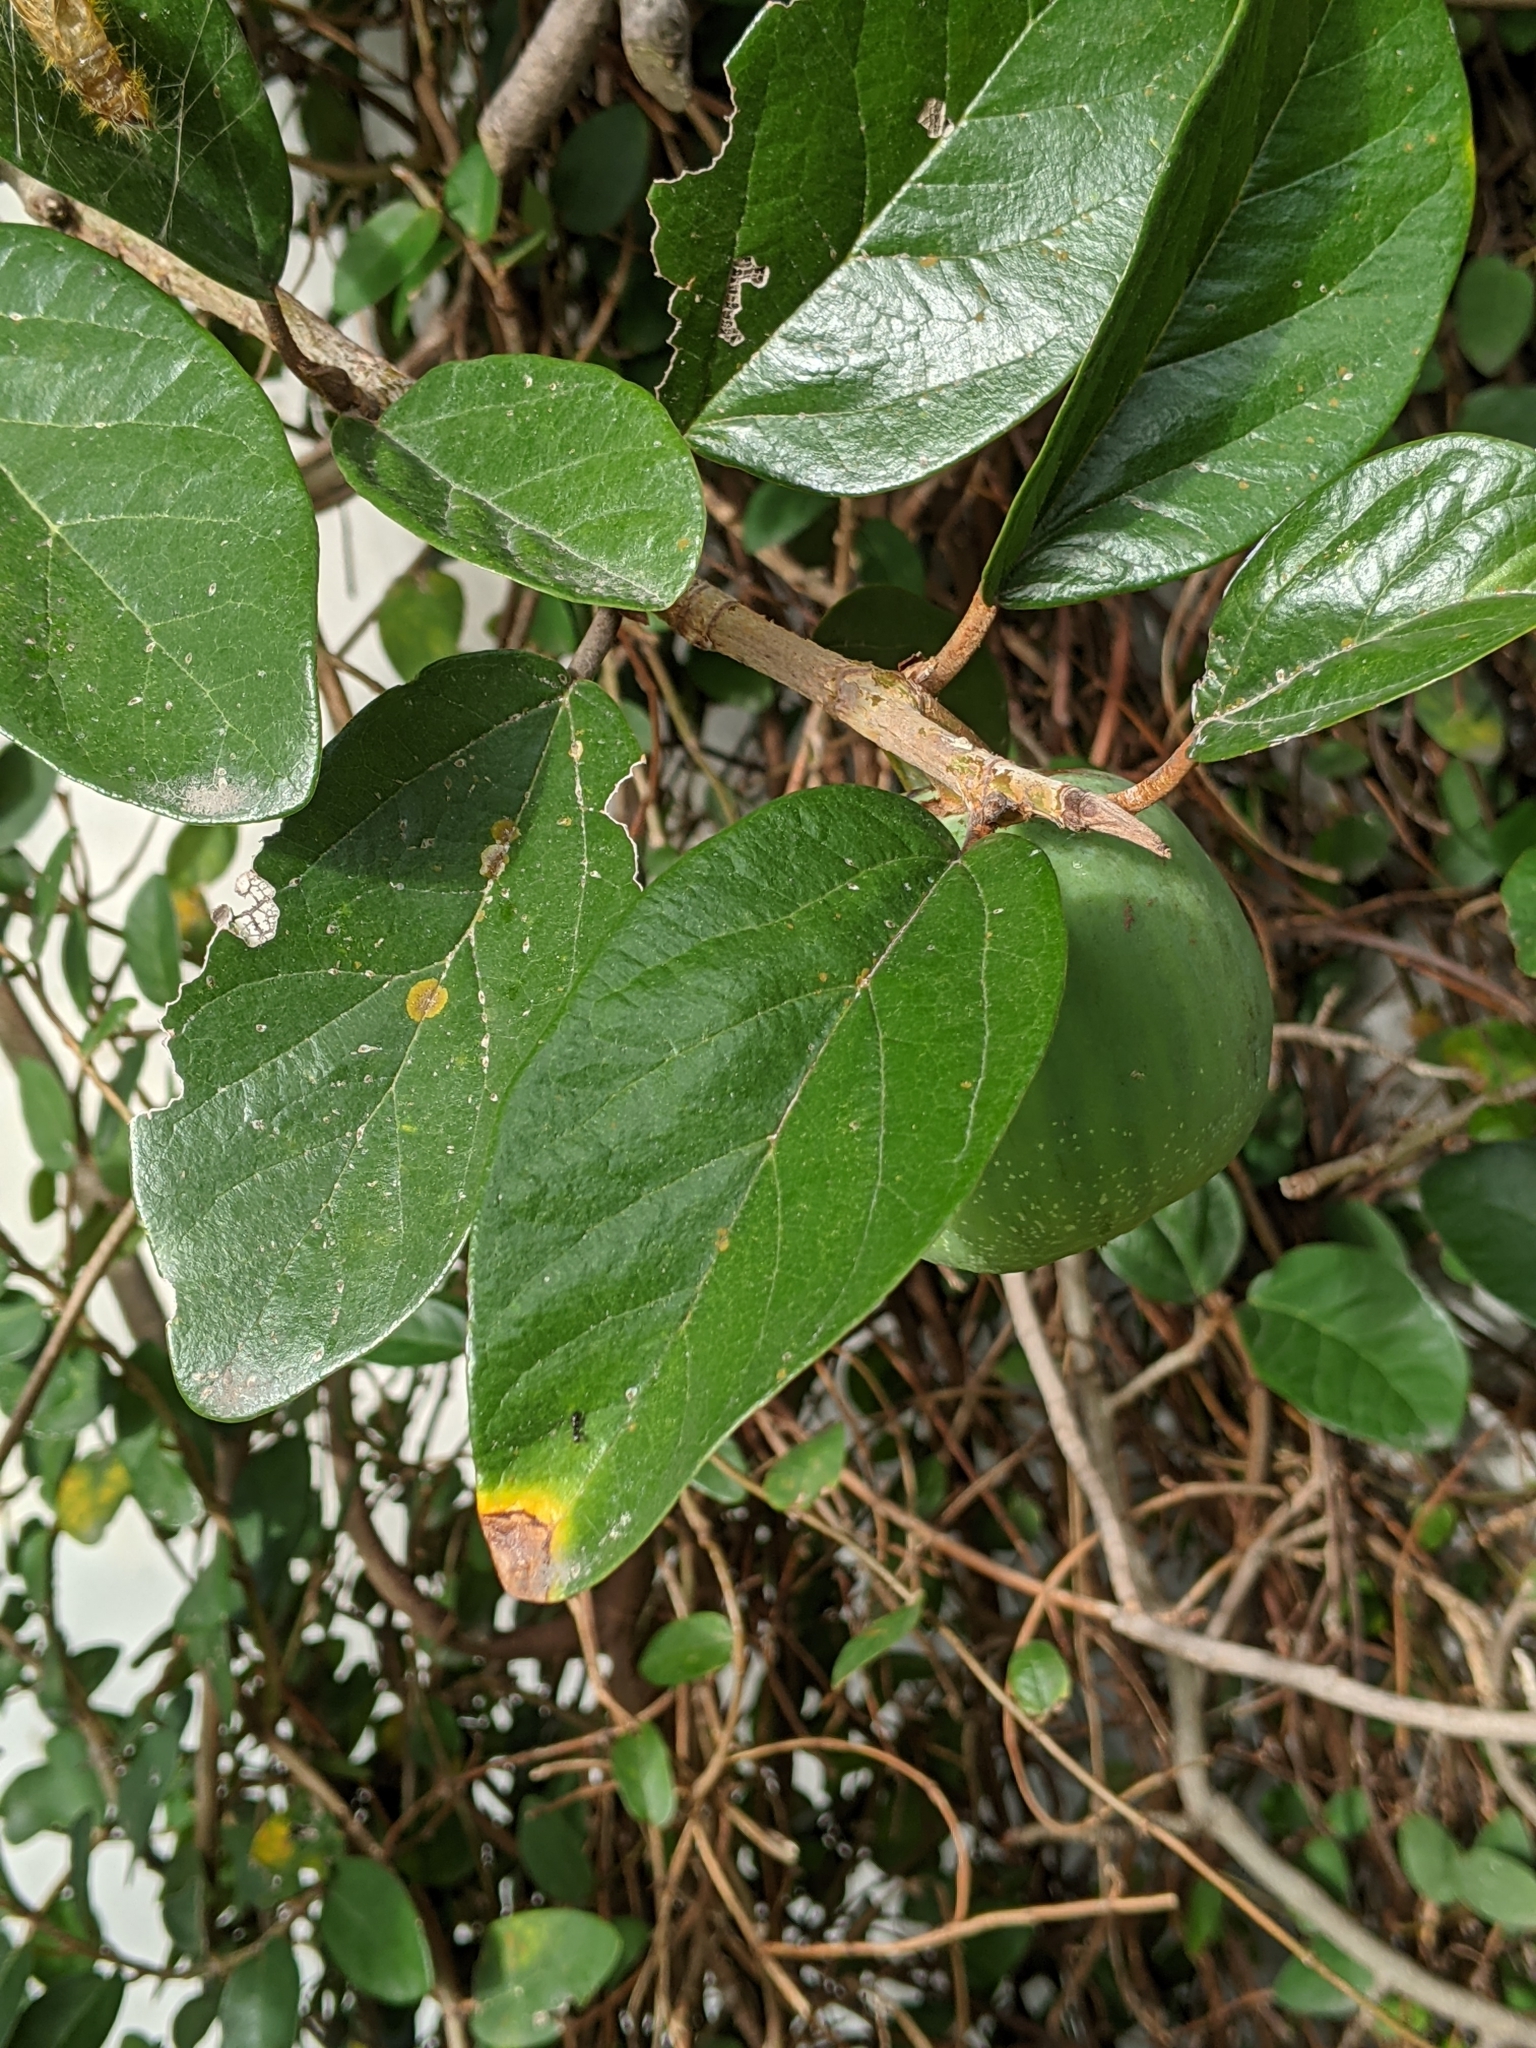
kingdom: Plantae
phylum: Tracheophyta
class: Magnoliopsida
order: Rosales
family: Moraceae
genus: Ficus
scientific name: Ficus pumila
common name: Climbingfig
